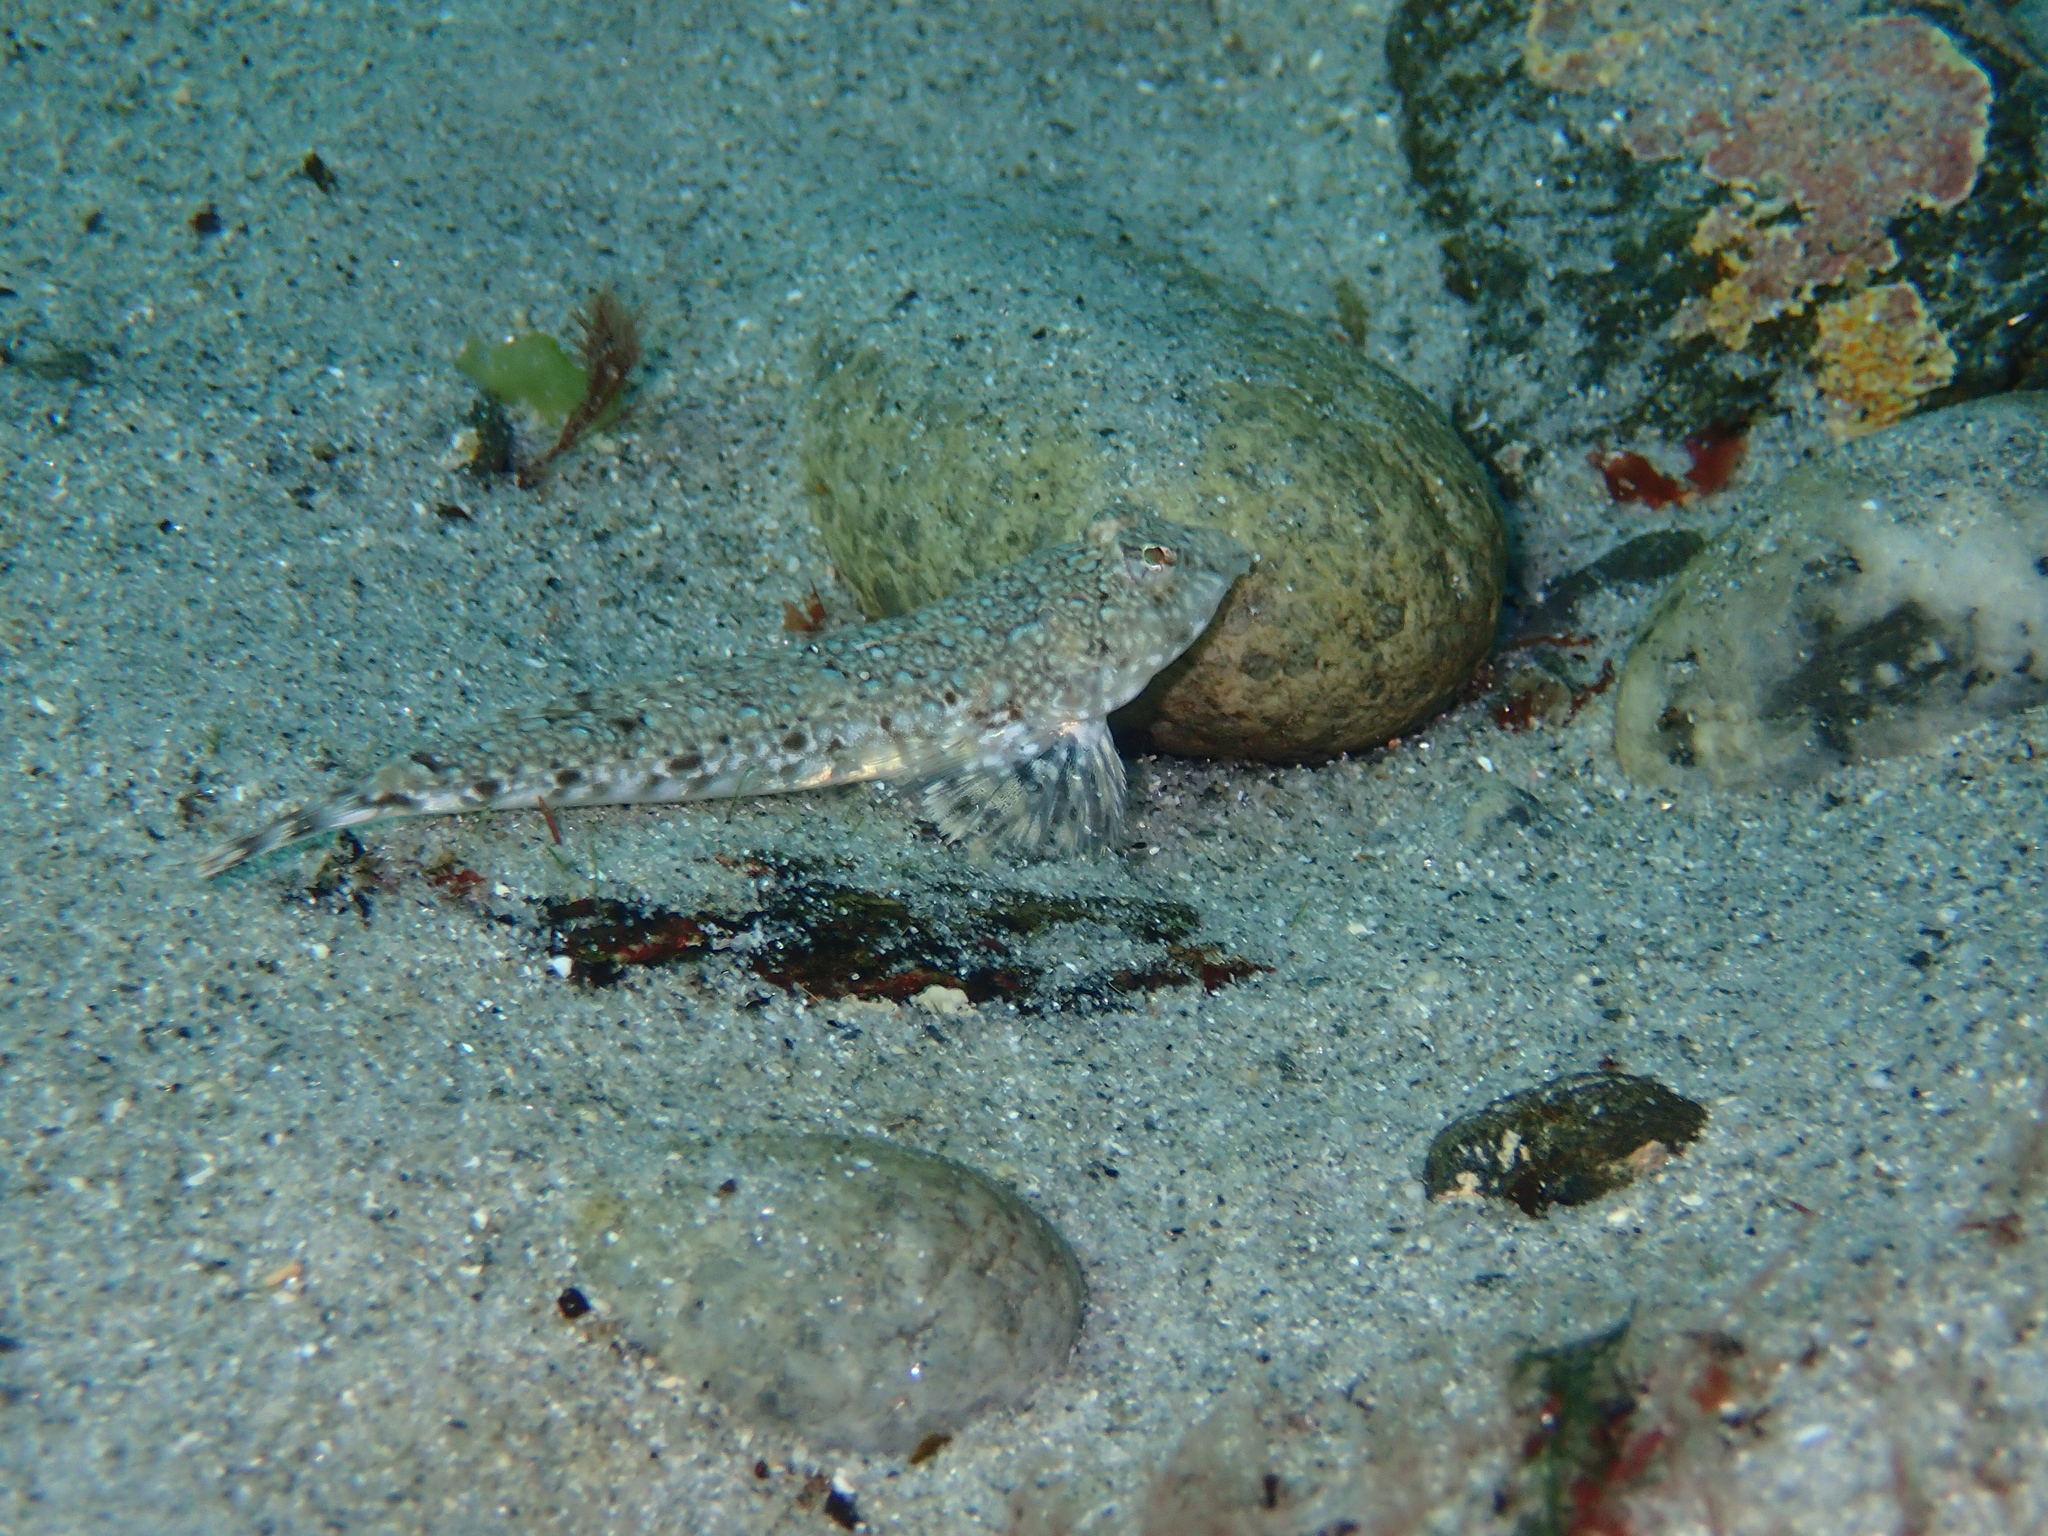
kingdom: Animalia
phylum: Chordata
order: Perciformes
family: Callionymidae
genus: Callionymus
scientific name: Callionymus lyra
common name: Dragonet
